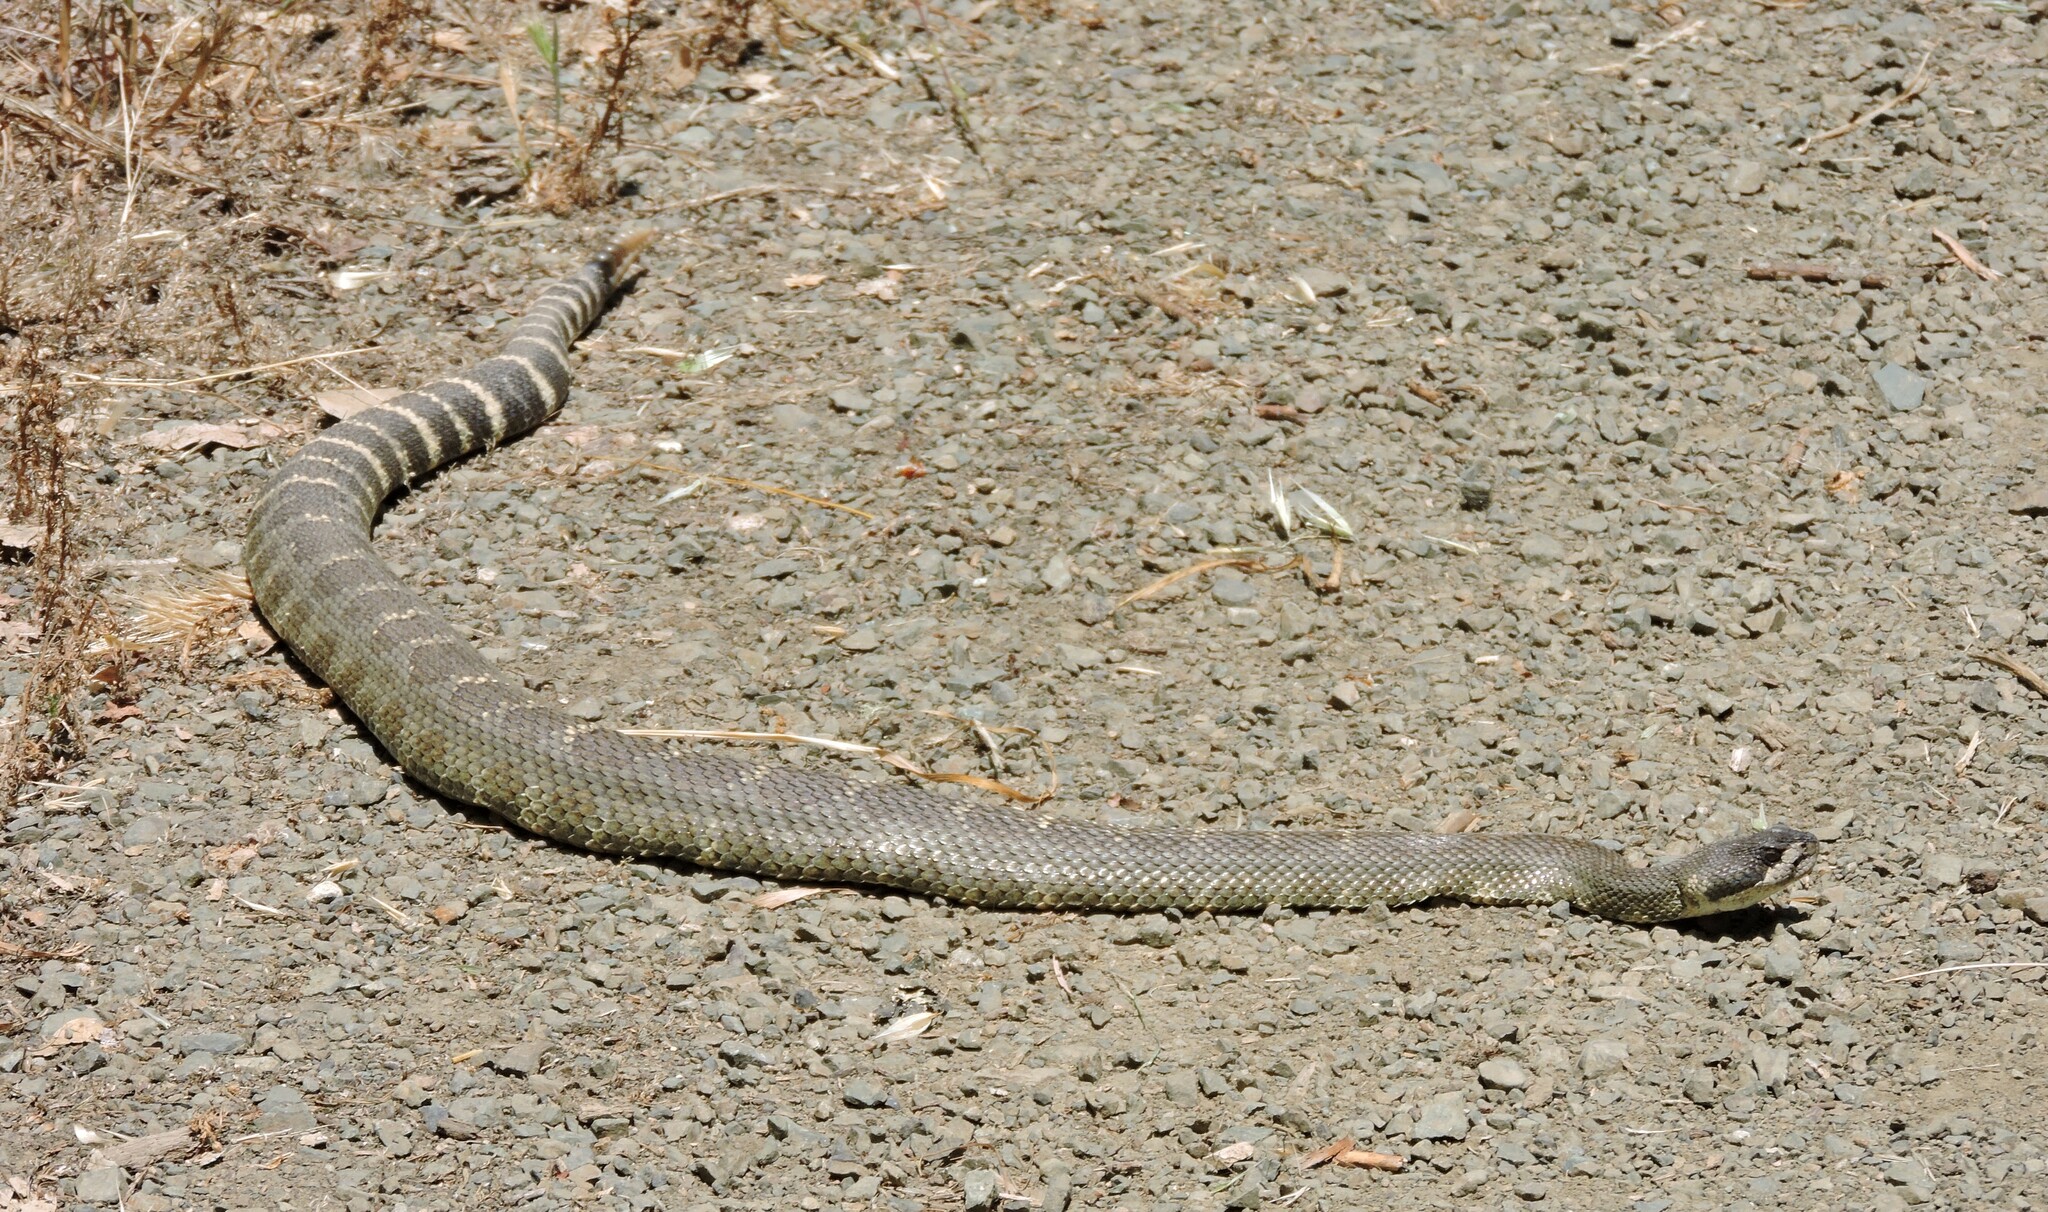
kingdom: Animalia
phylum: Chordata
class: Squamata
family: Viperidae
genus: Crotalus
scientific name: Crotalus oreganus
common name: Abyssus
